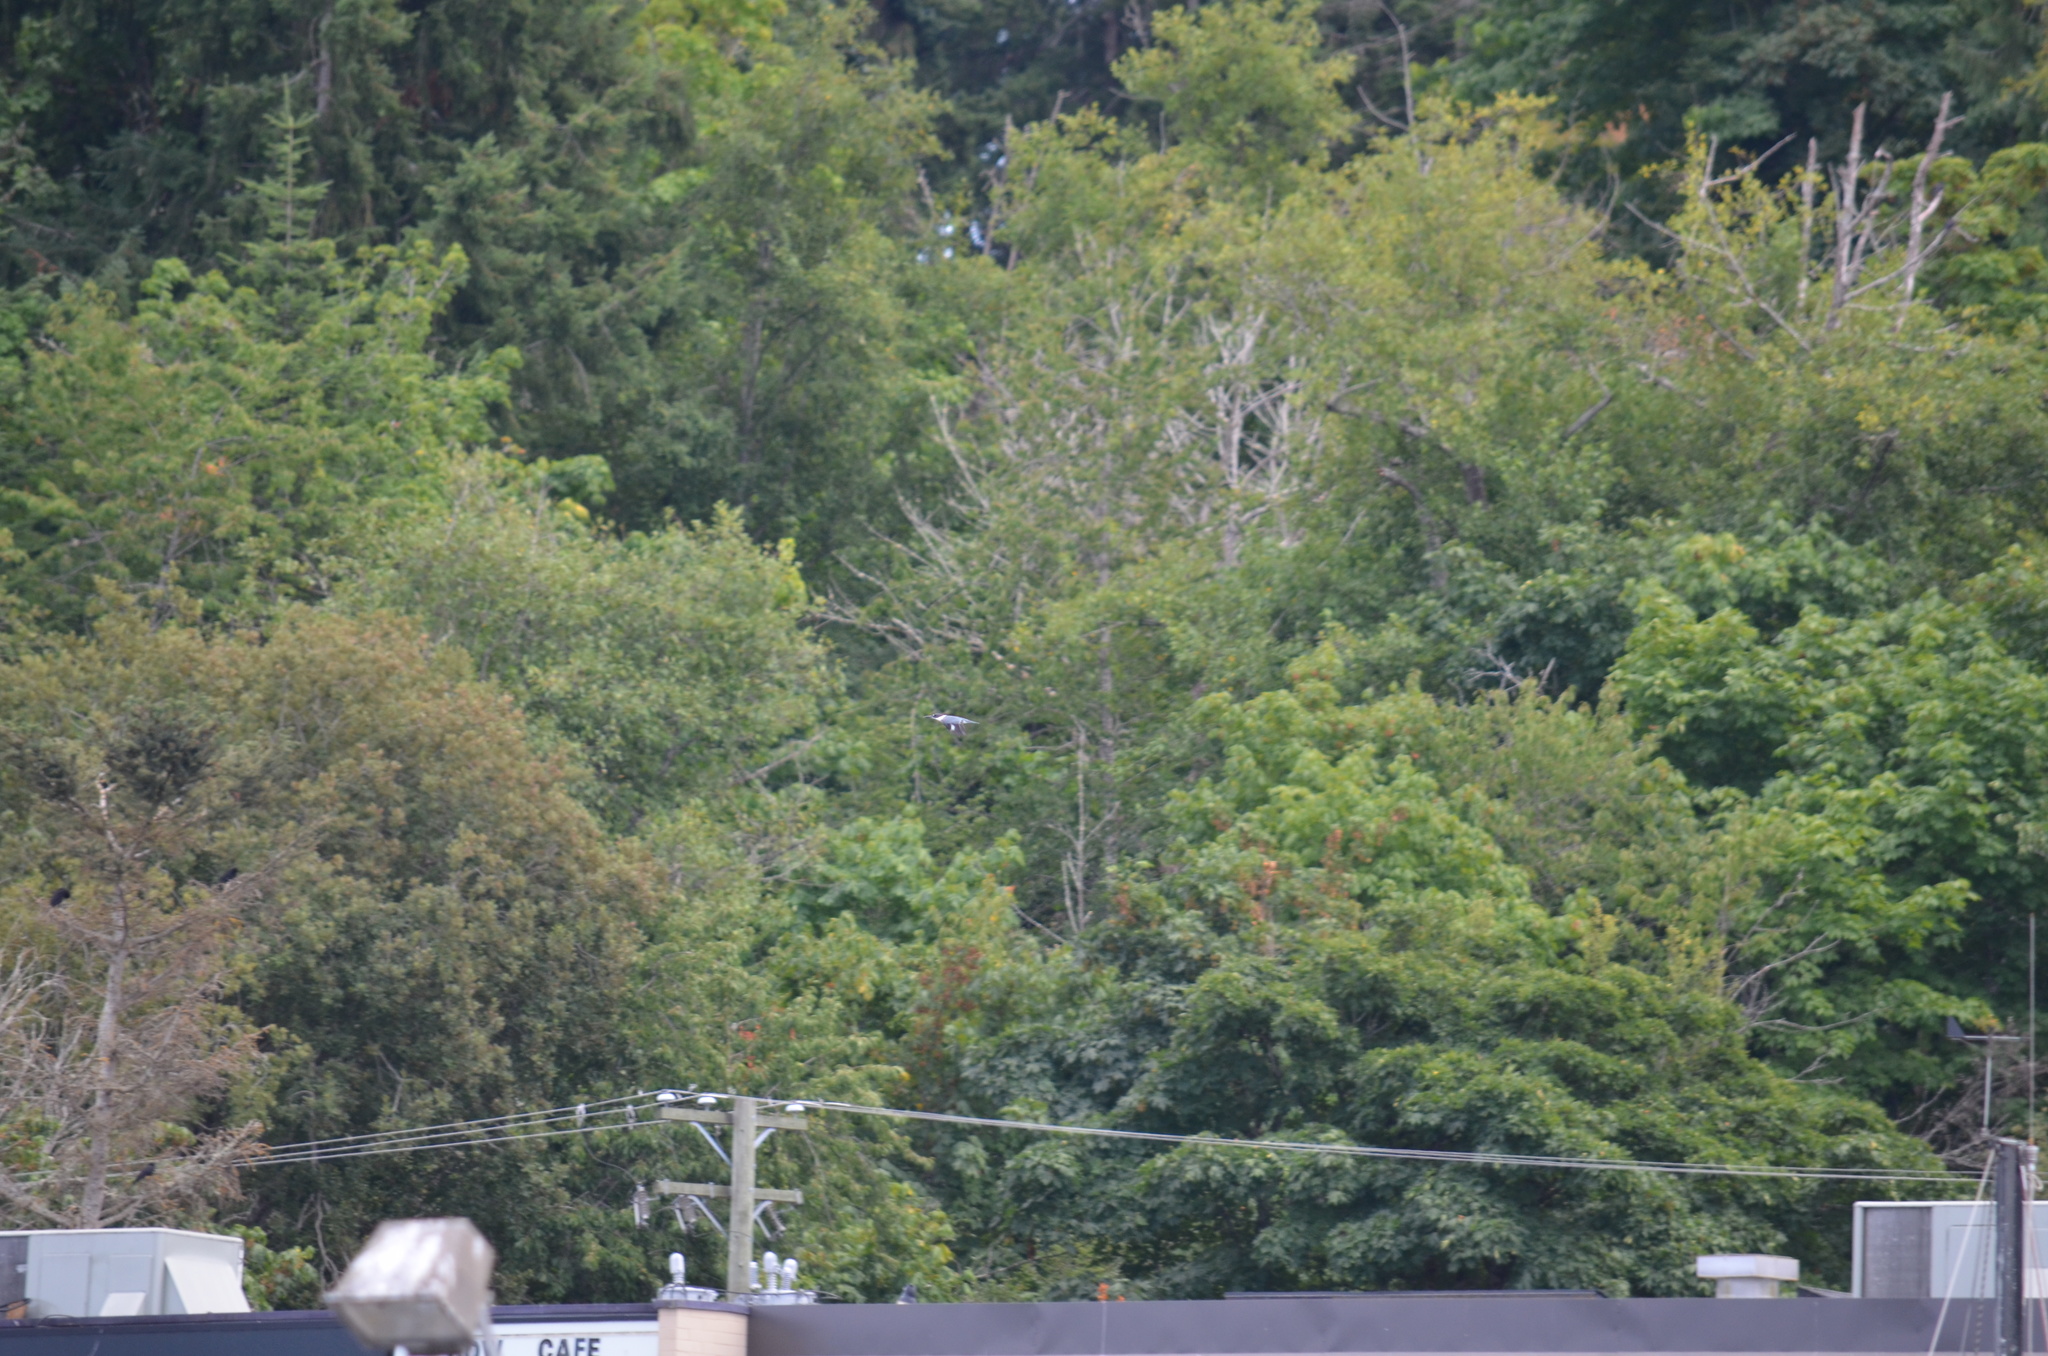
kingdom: Animalia
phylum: Chordata
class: Aves
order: Coraciiformes
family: Alcedinidae
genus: Megaceryle
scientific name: Megaceryle alcyon
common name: Belted kingfisher
